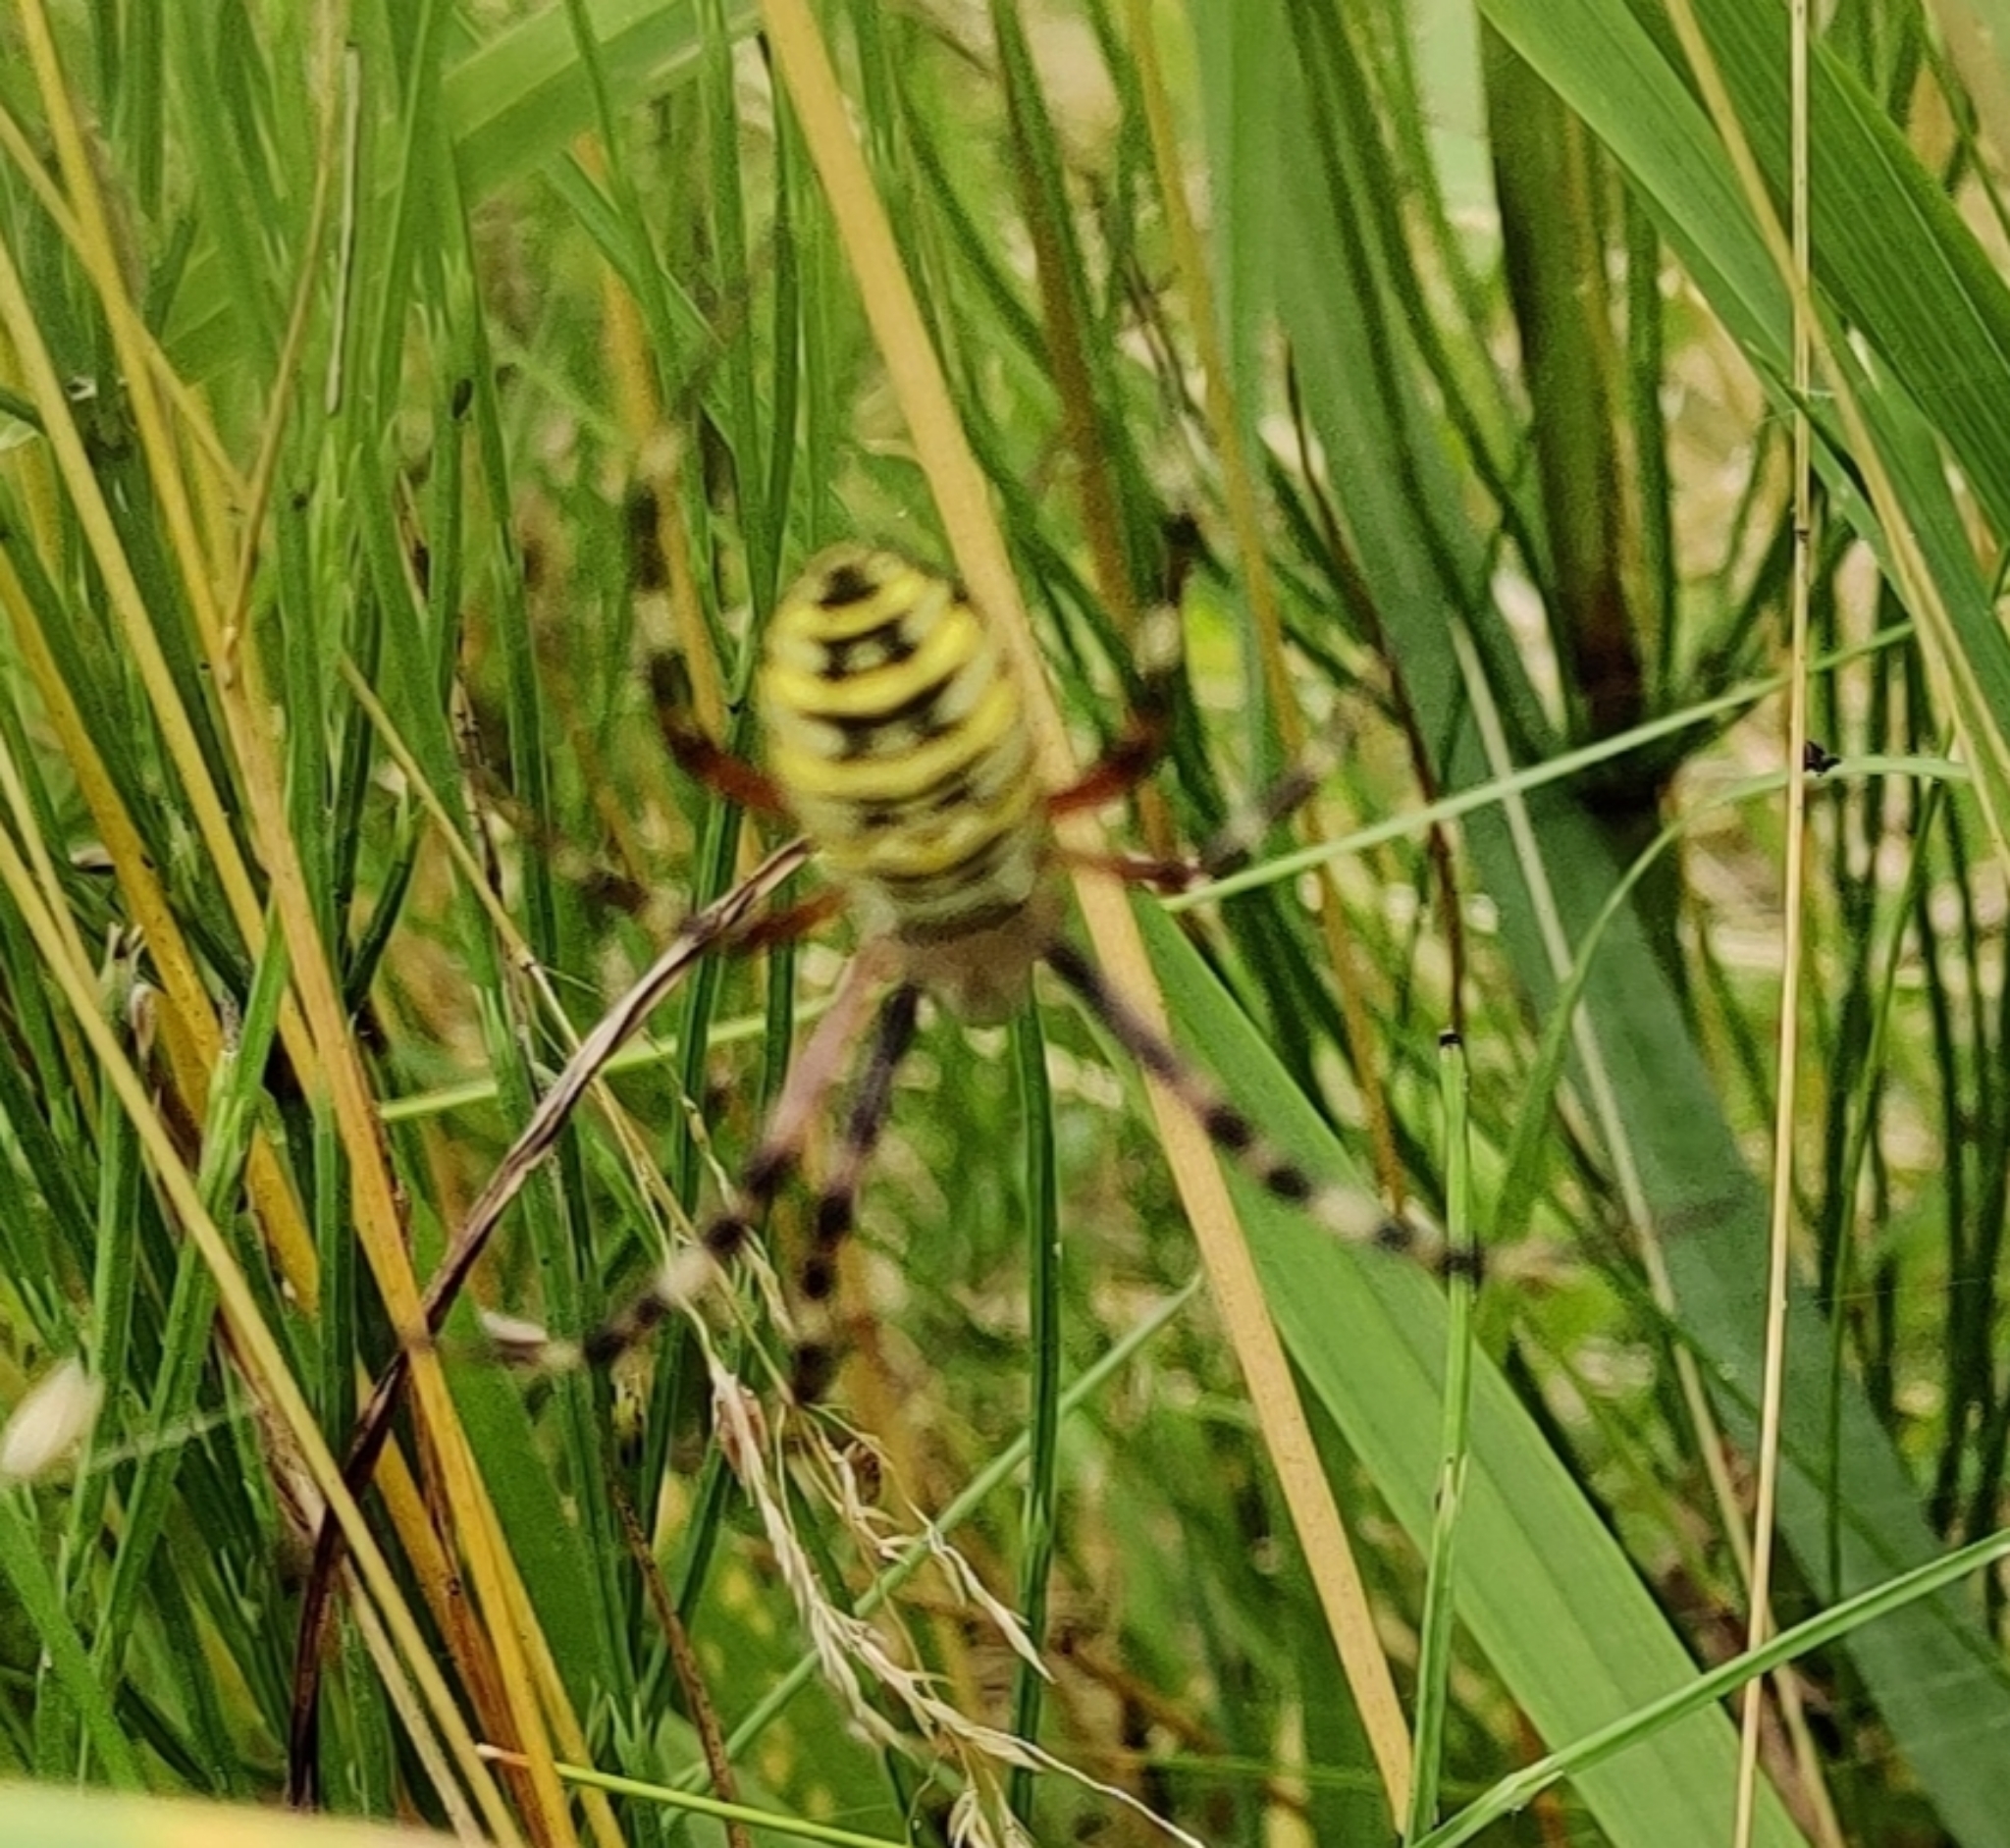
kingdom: Animalia
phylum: Arthropoda
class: Arachnida
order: Araneae
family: Araneidae
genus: Argiope
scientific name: Argiope bruennichi
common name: Wasp spider
